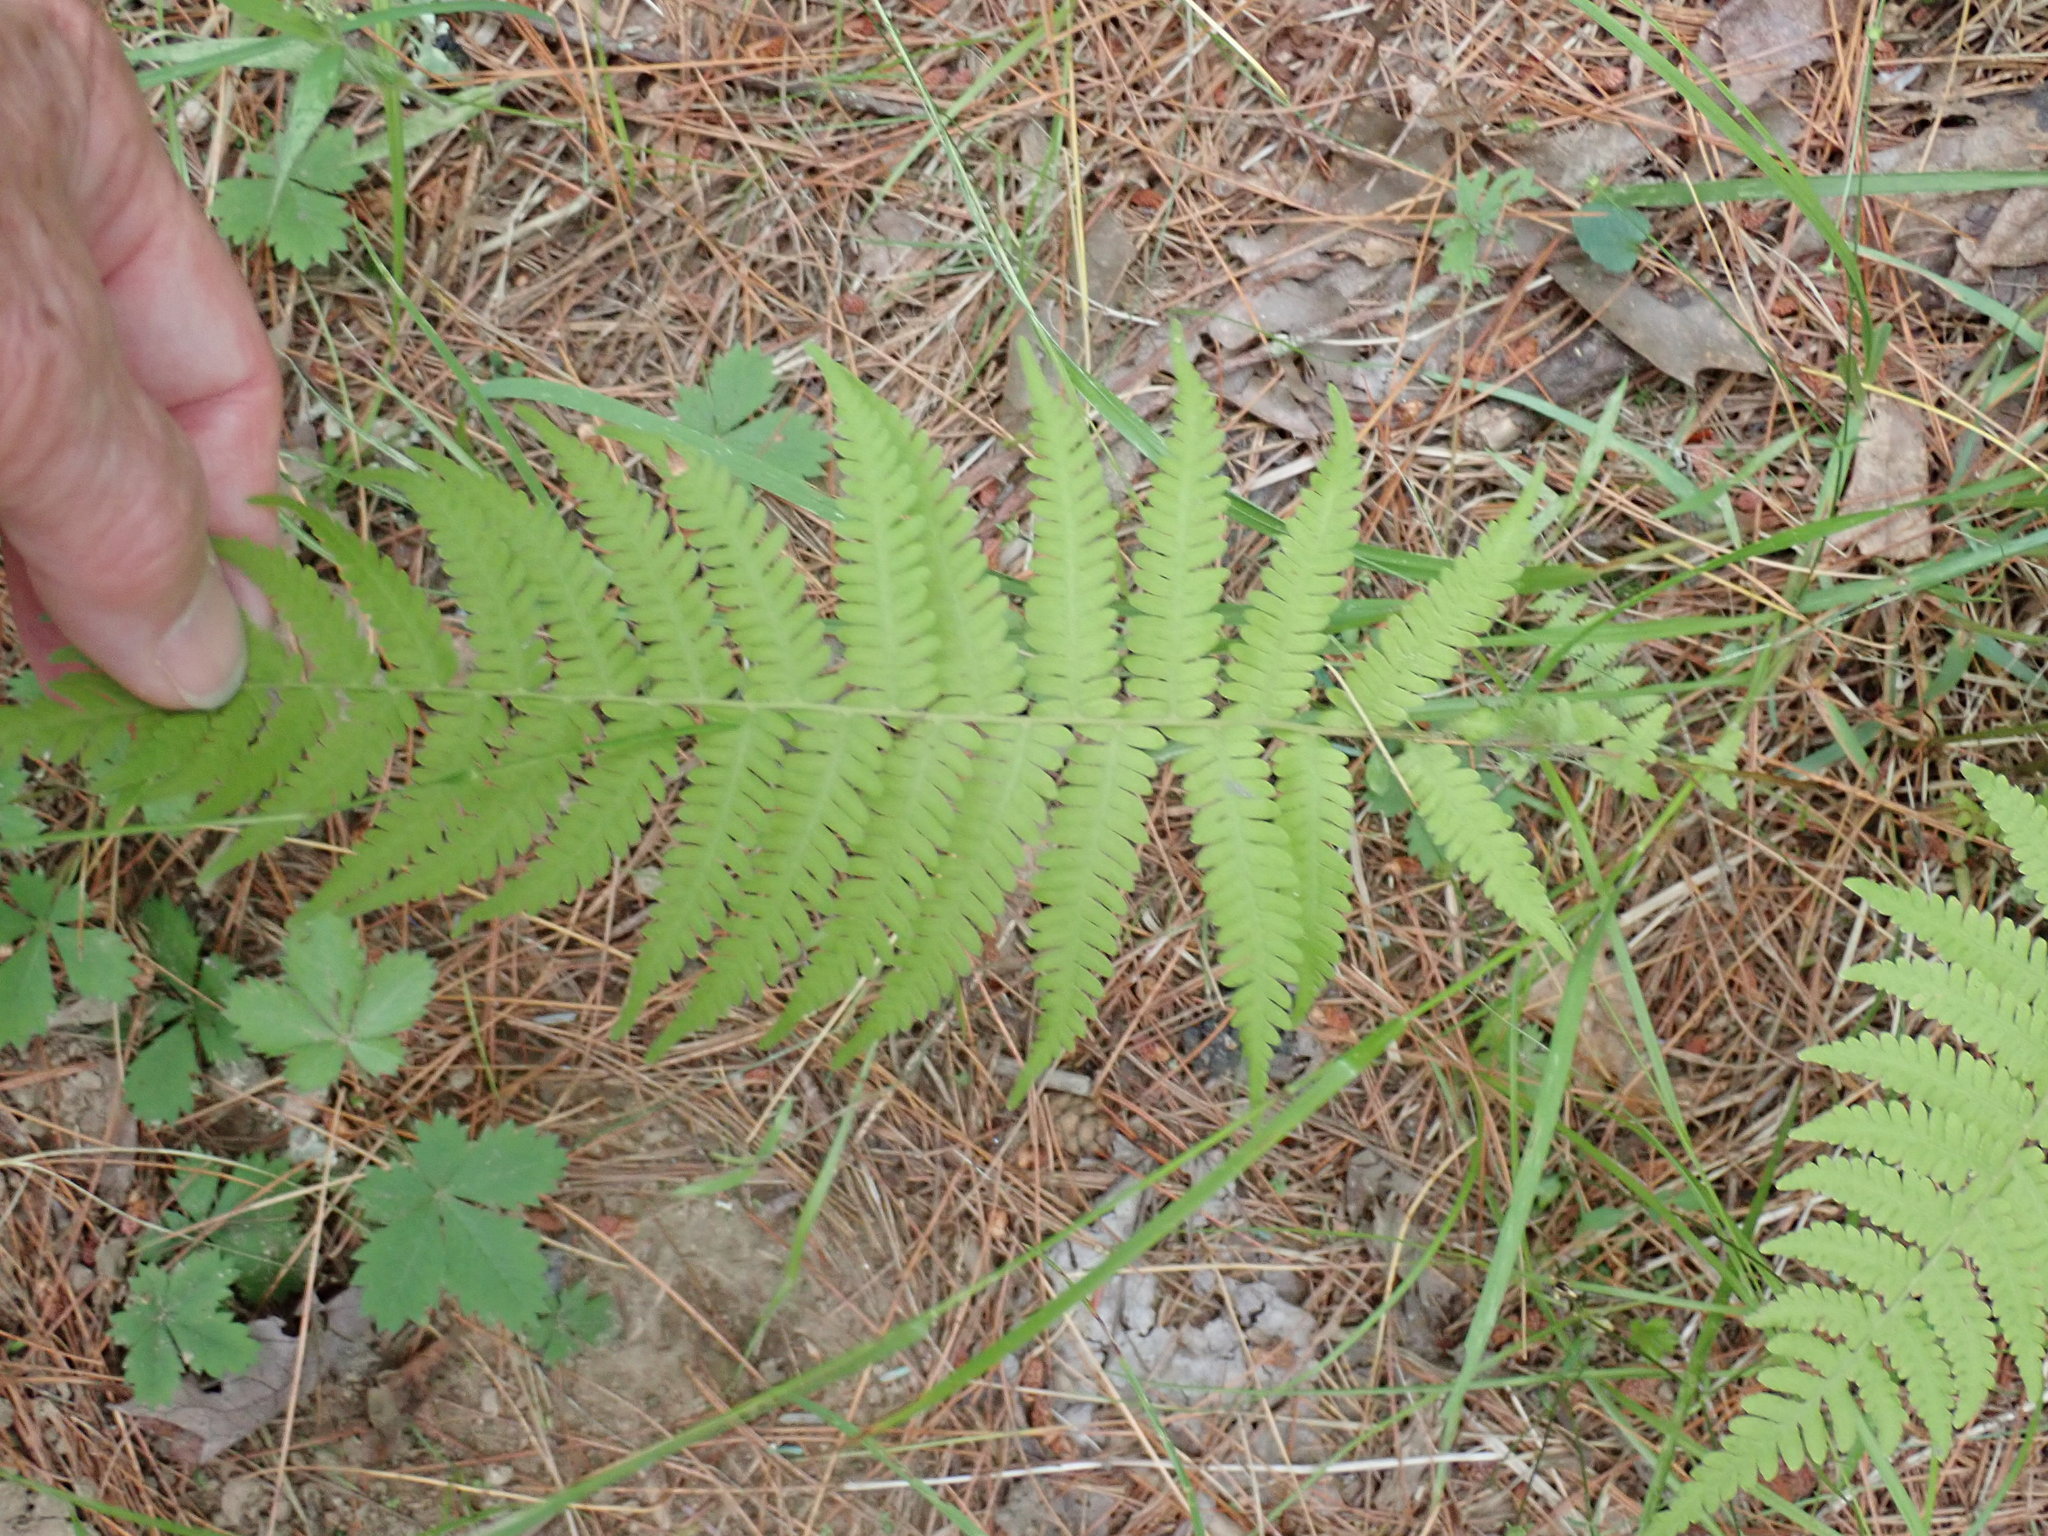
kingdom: Plantae
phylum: Tracheophyta
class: Polypodiopsida
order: Polypodiales
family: Thelypteridaceae
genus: Amauropelta
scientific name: Amauropelta noveboracensis
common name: New york fern
